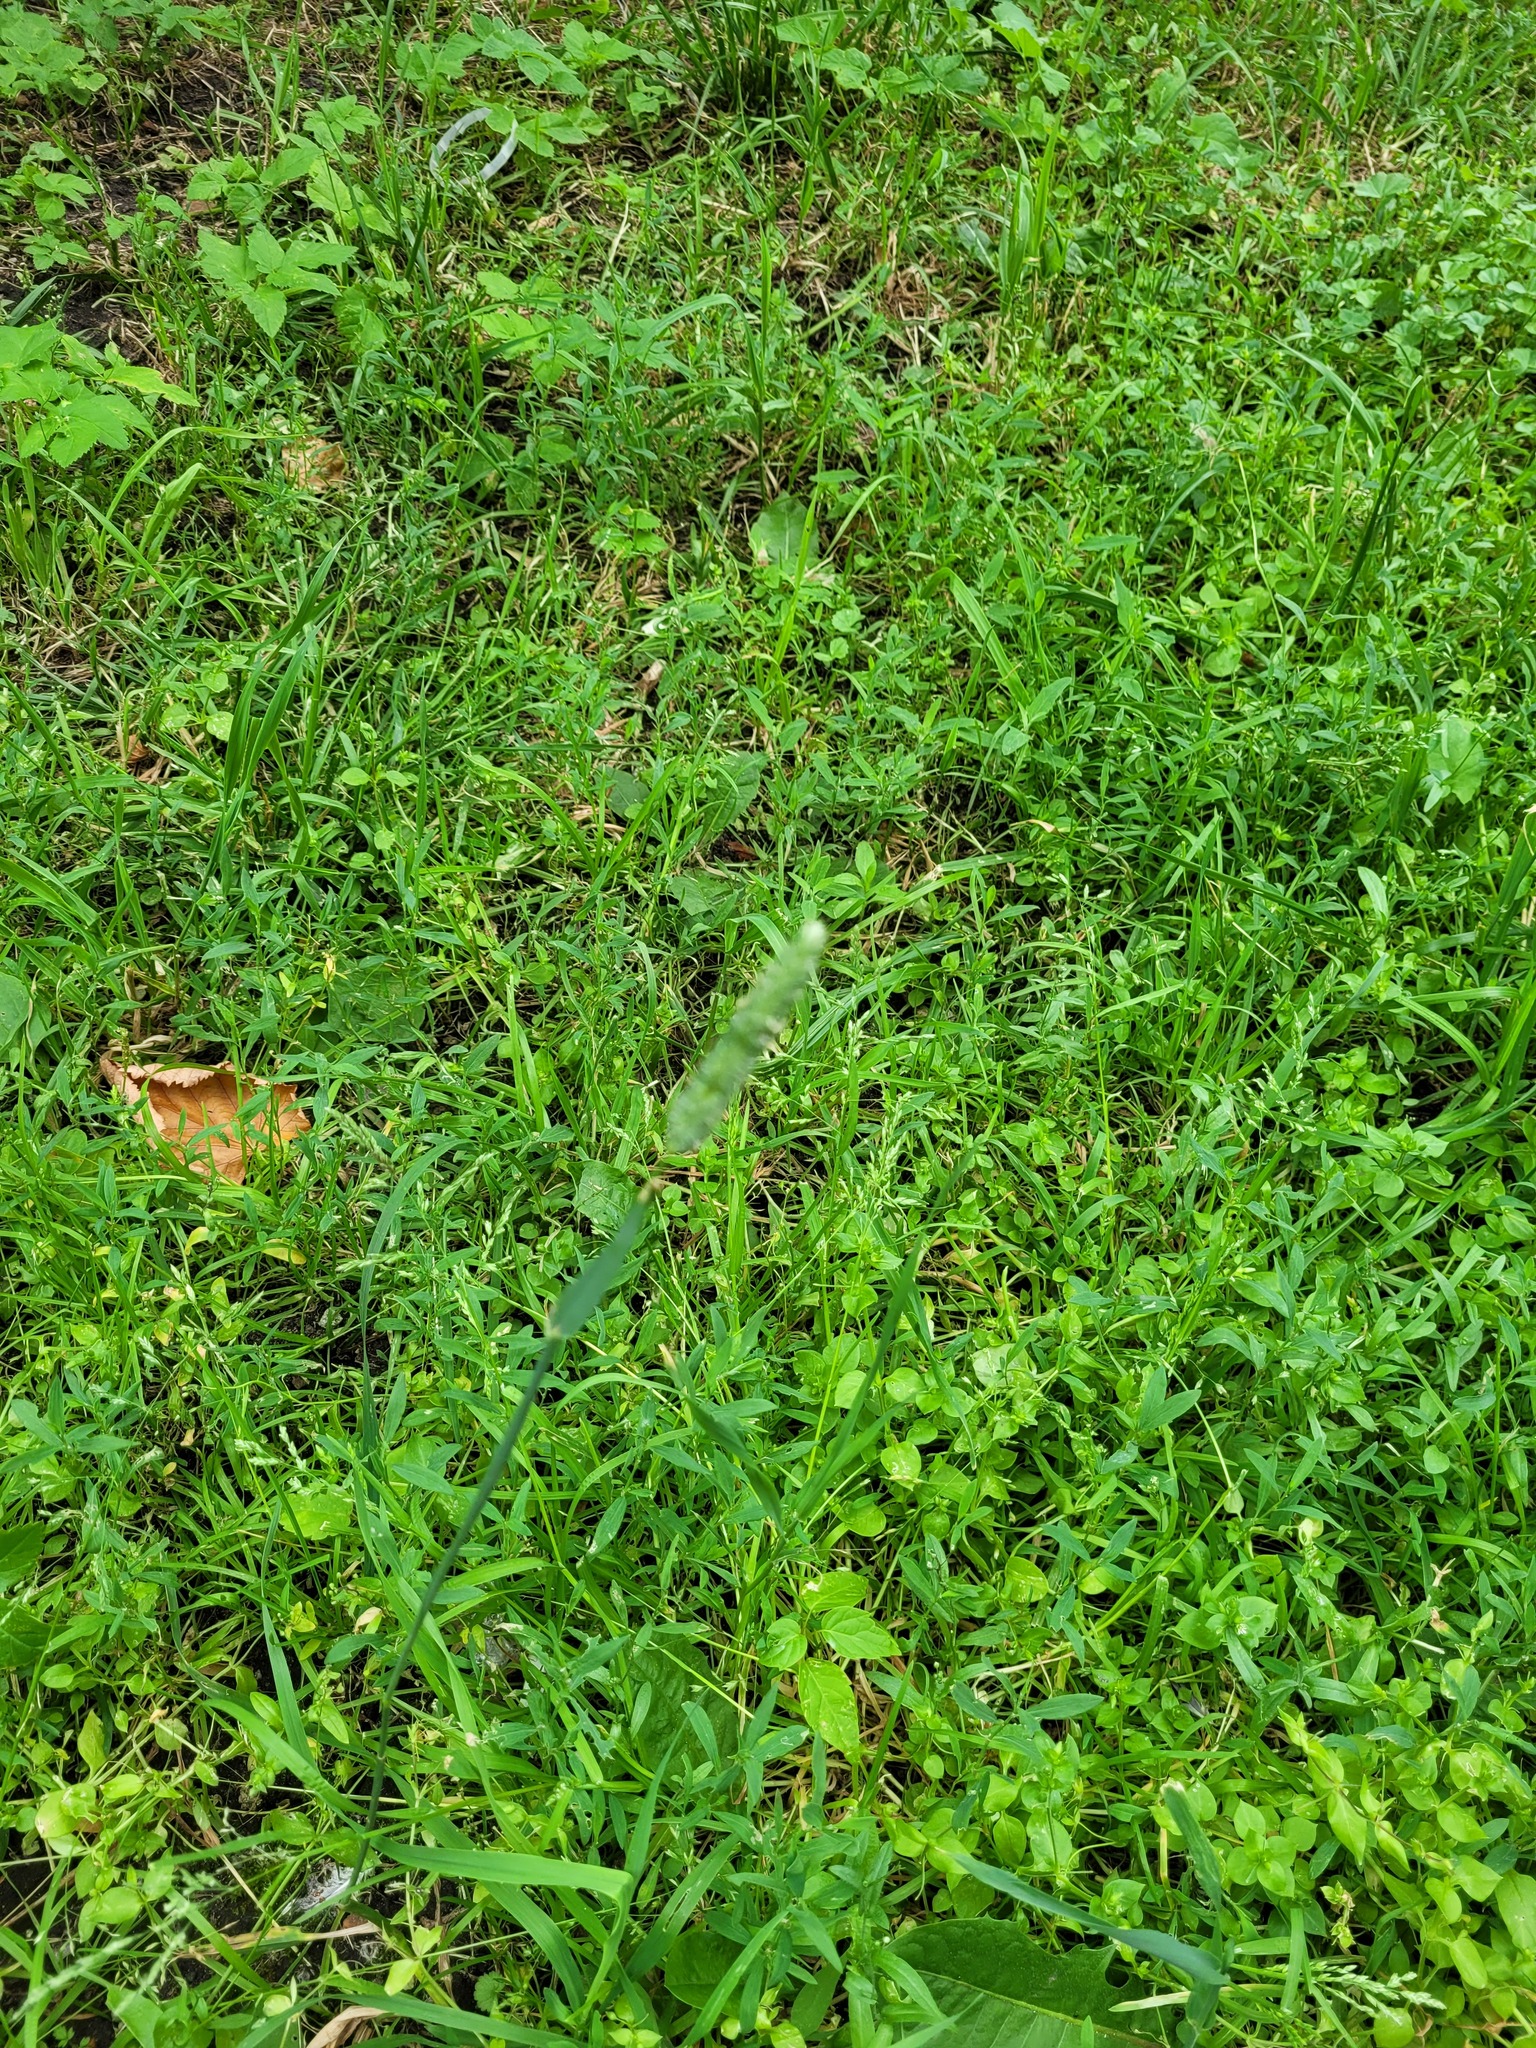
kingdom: Plantae
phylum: Tracheophyta
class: Liliopsida
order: Poales
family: Poaceae
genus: Phleum
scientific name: Phleum pratense
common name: Timothy grass
